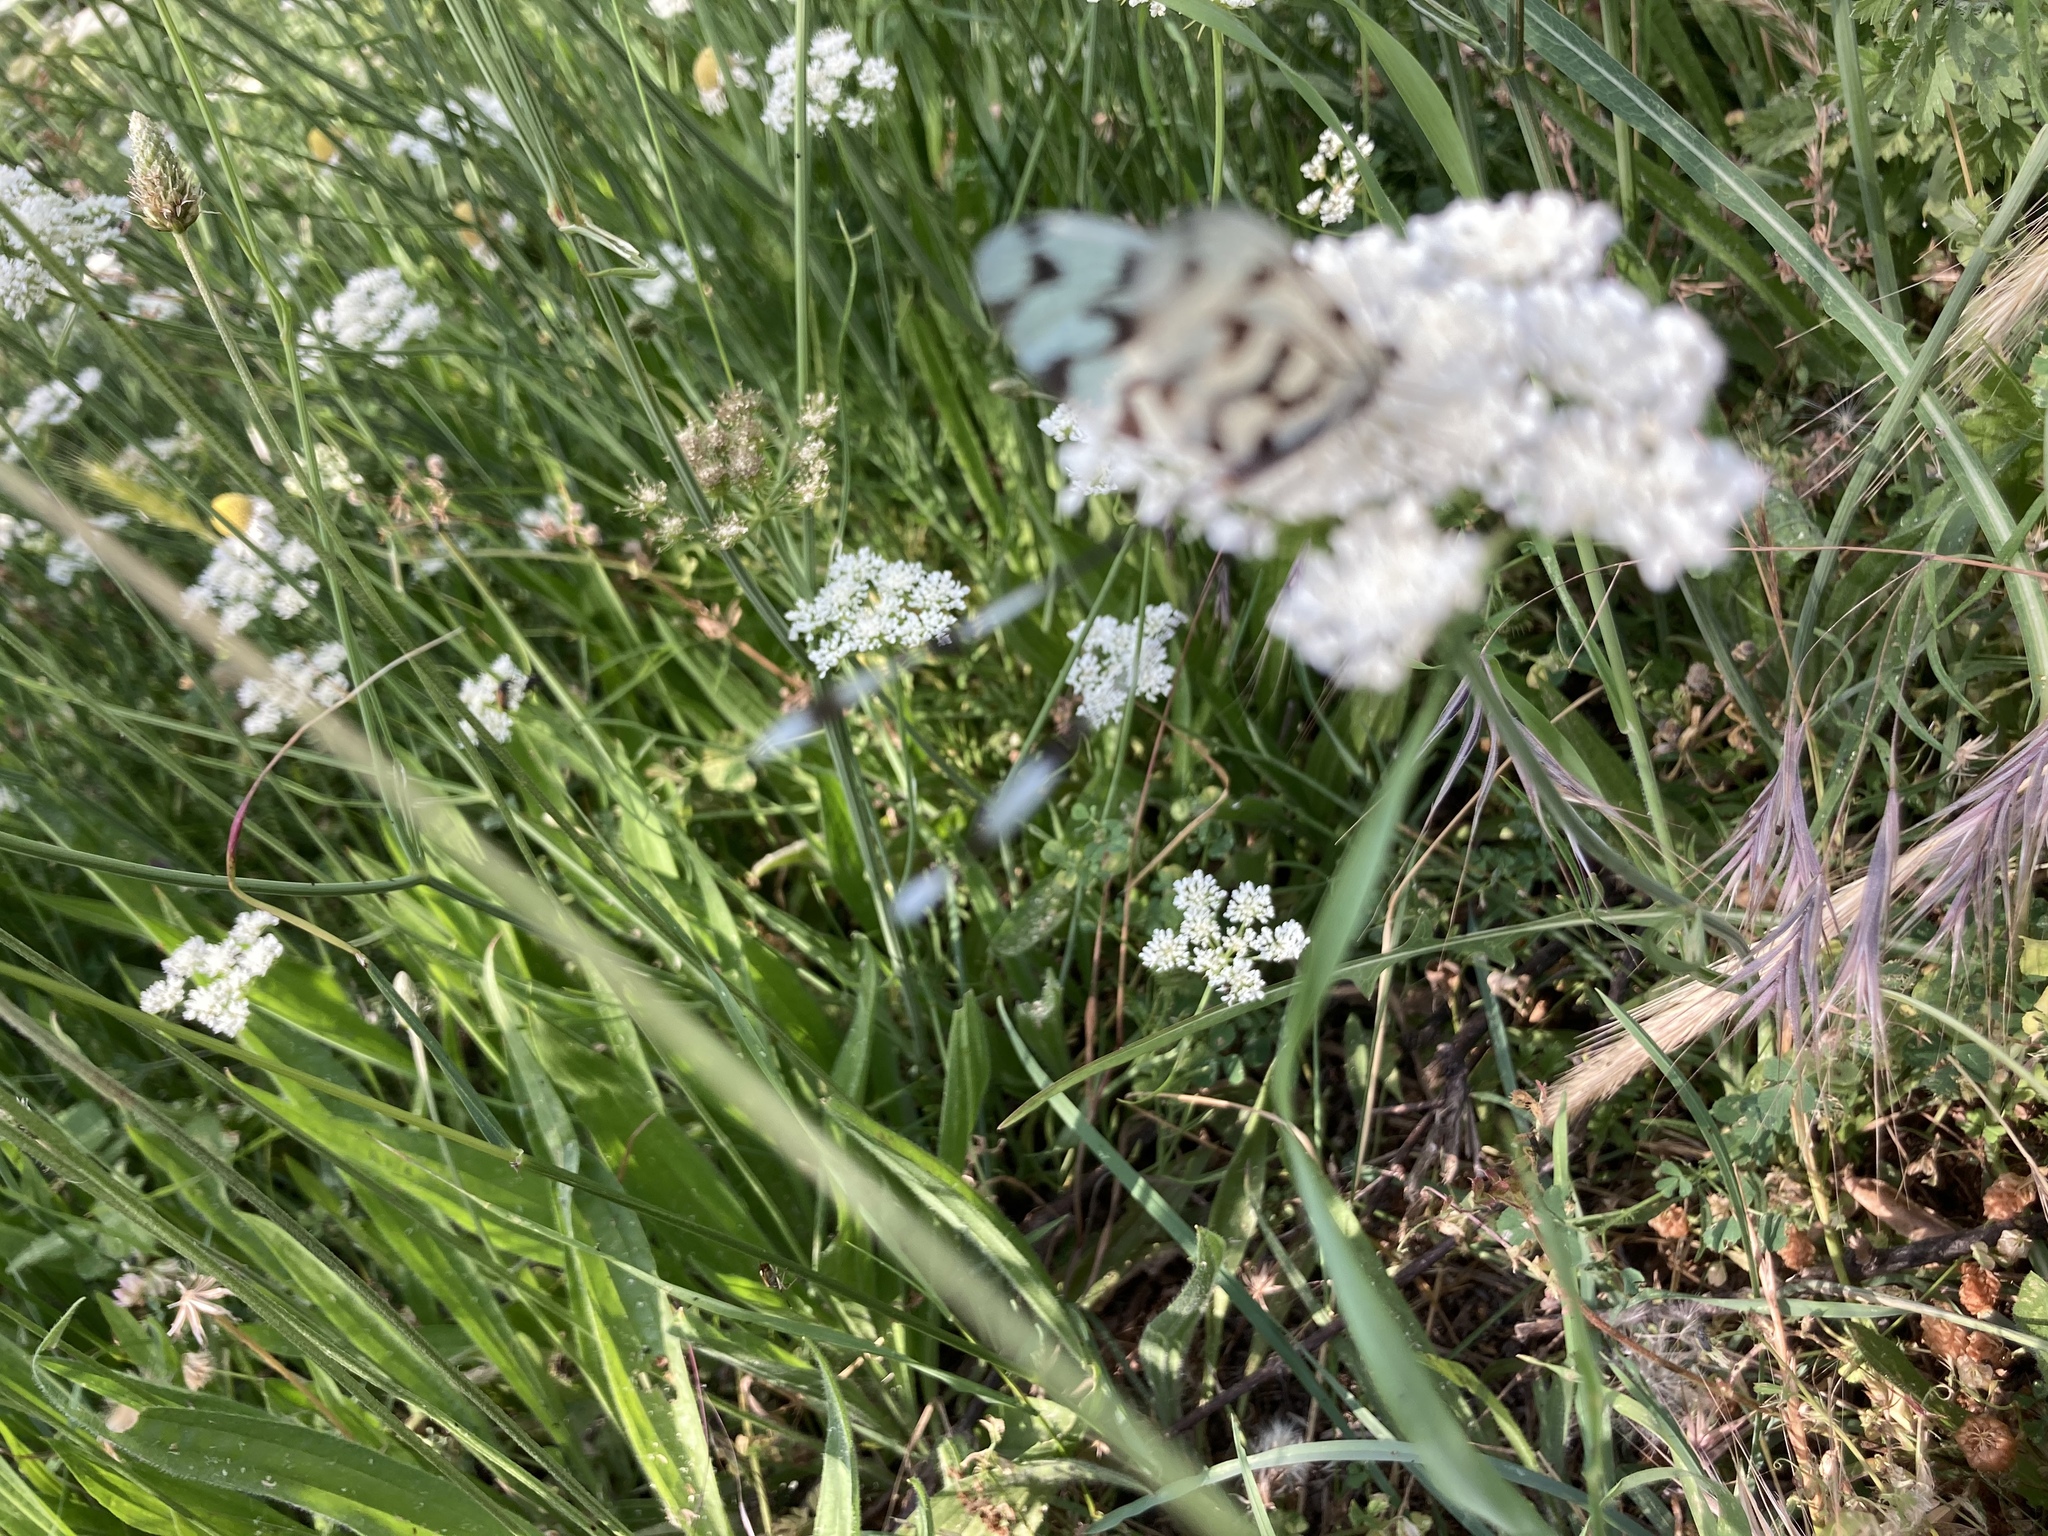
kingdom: Animalia
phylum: Arthropoda
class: Insecta
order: Neuroptera
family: Nemopteridae
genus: Nemoptera
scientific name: Nemoptera sinuata
